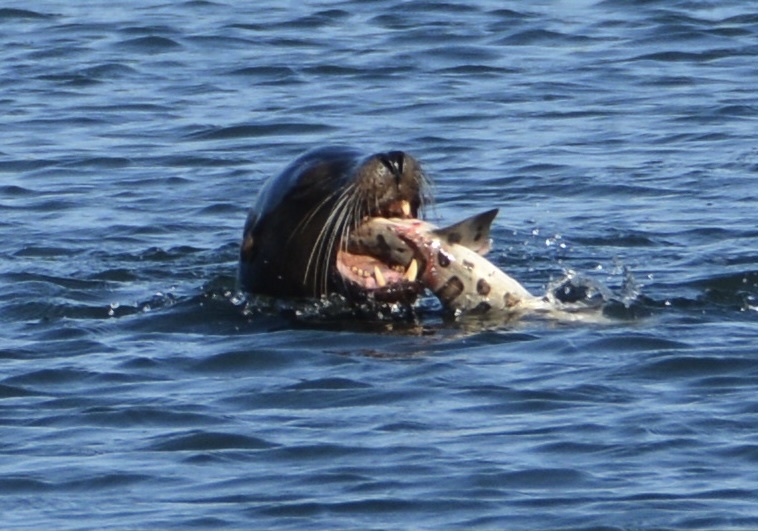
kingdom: Animalia
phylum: Chordata
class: Elasmobranchii
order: Carcharhiniformes
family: Triakidae
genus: Triakis
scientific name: Triakis semifasciata
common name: Leopard shark
